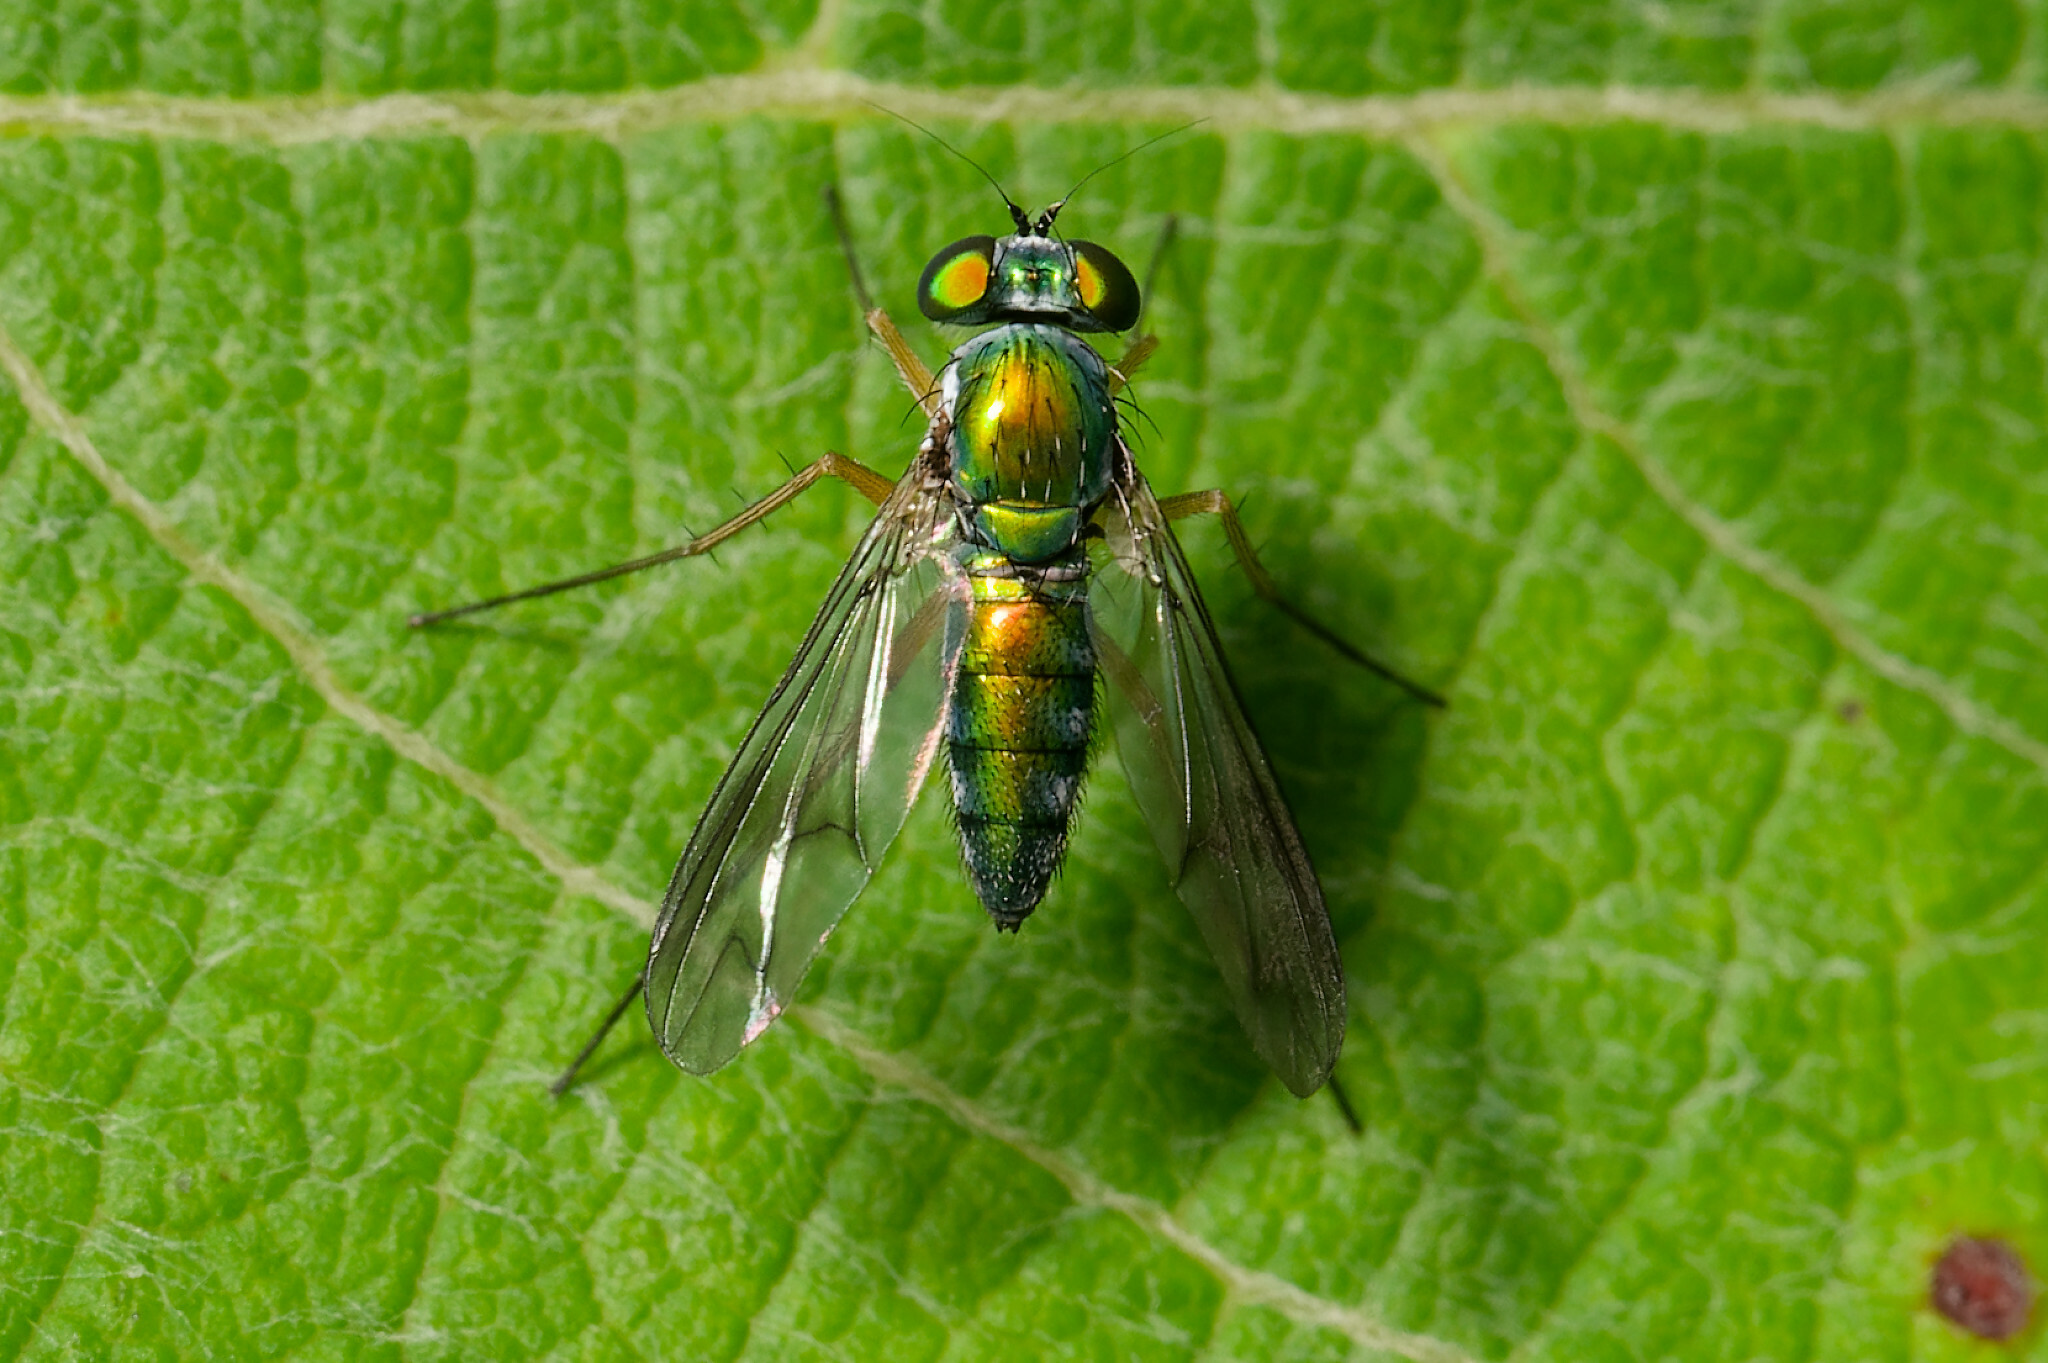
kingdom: Animalia
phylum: Arthropoda
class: Insecta
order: Diptera
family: Dolichopodidae
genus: Condylostylus
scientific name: Condylostylus
